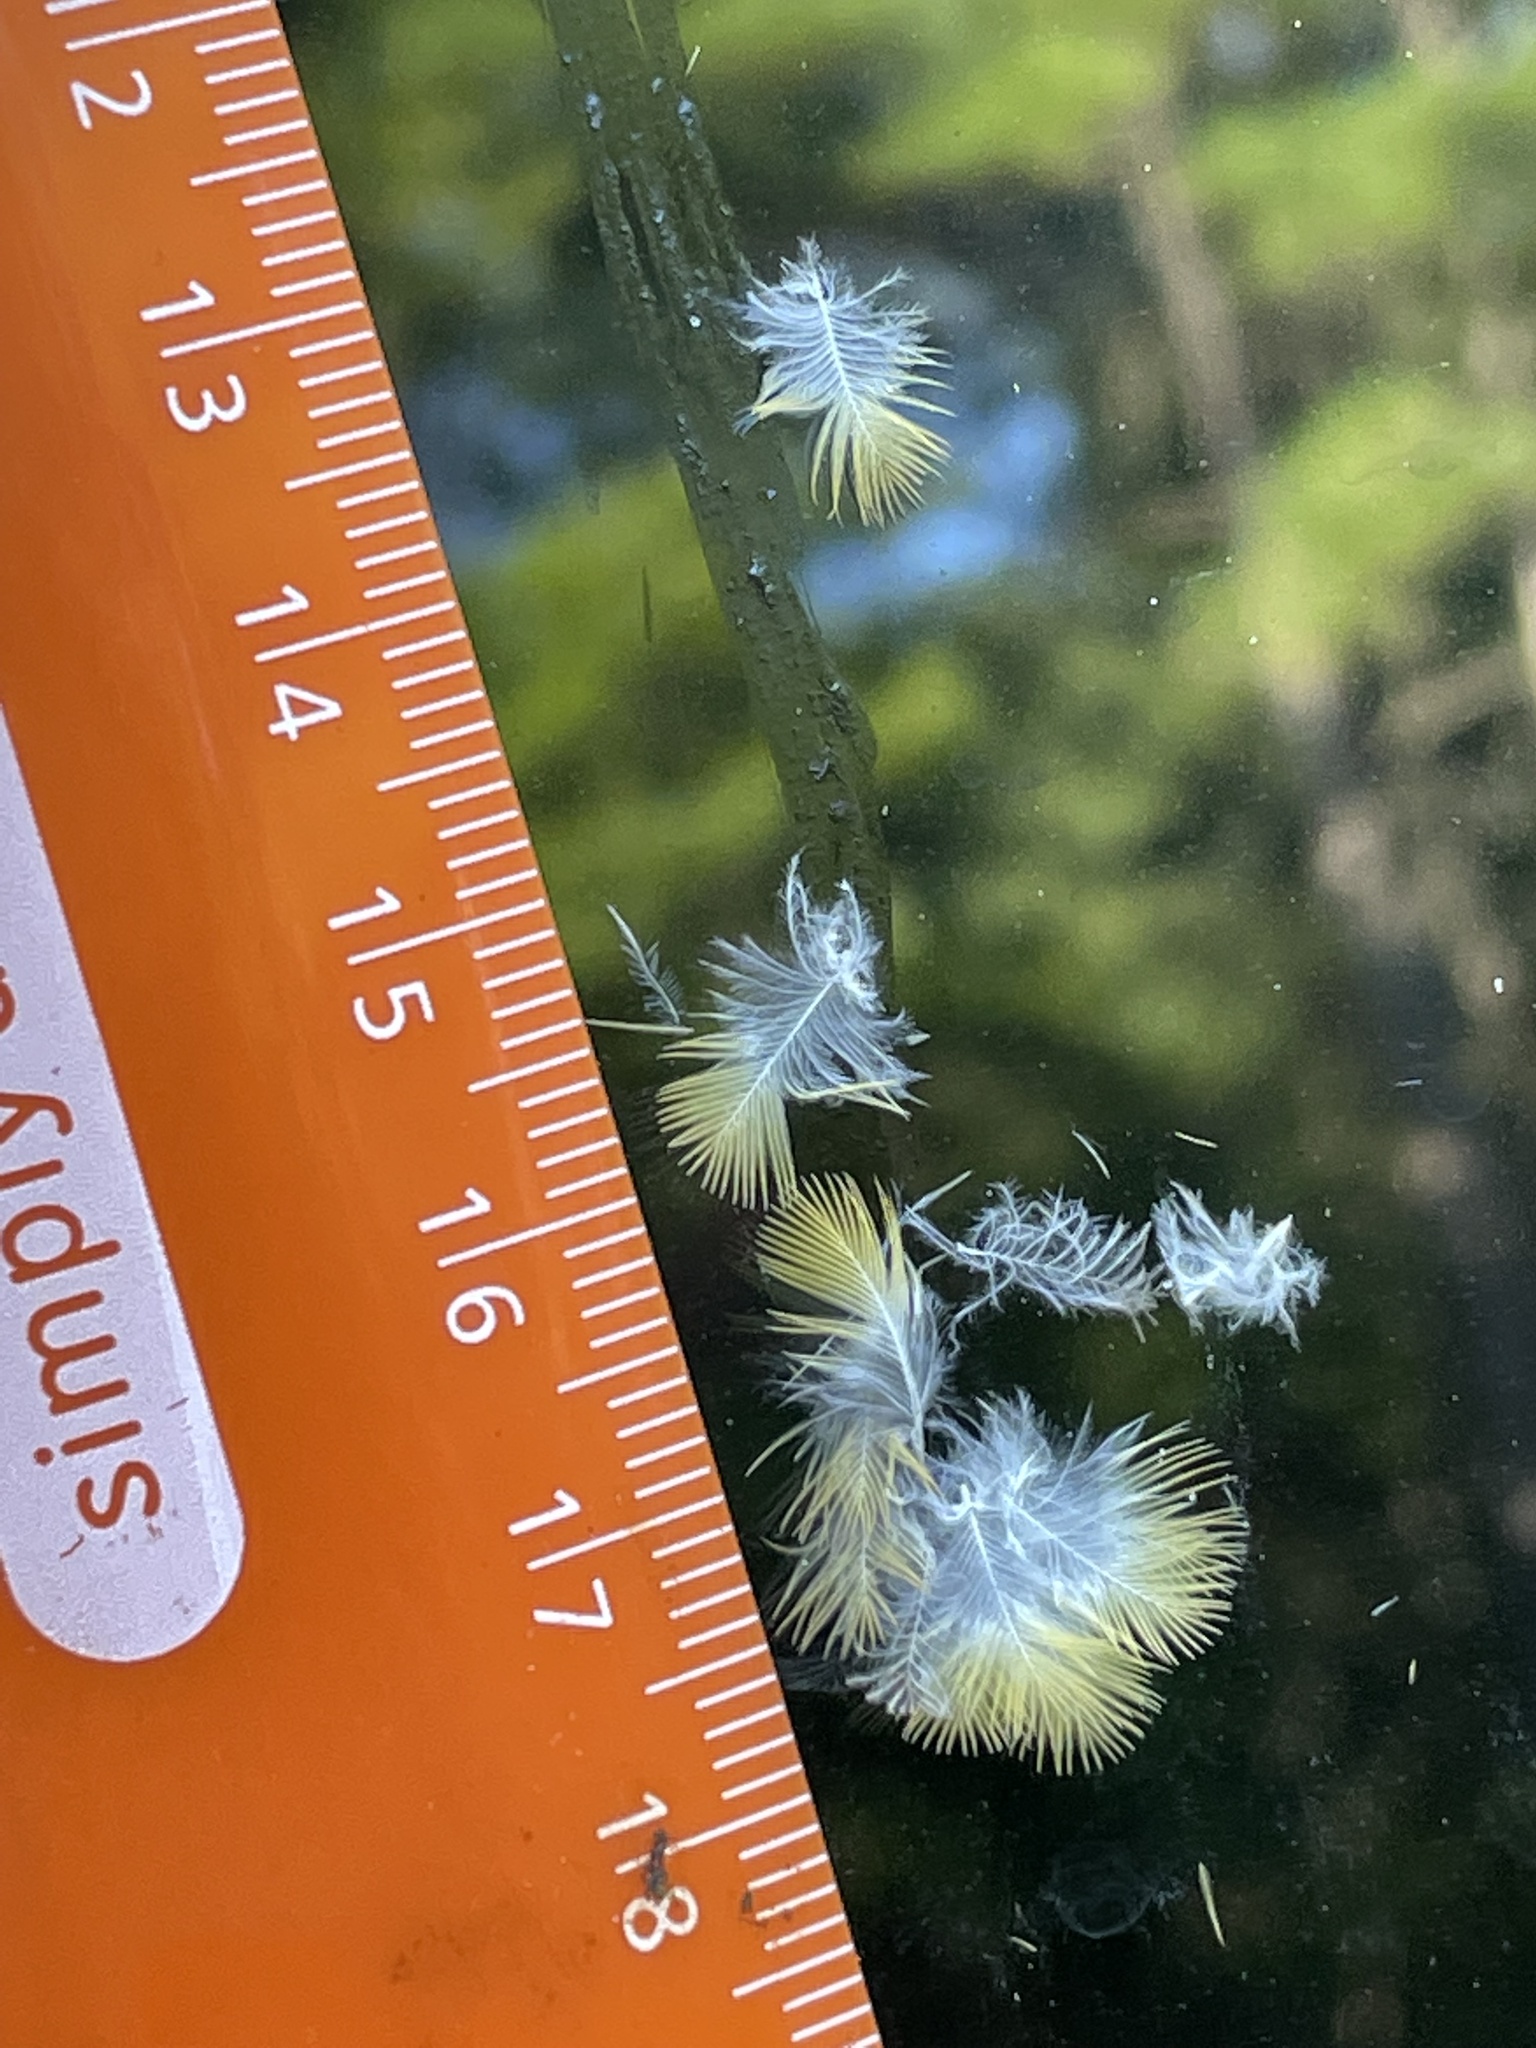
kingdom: Animalia
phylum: Chordata
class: Aves
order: Passeriformes
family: Fringillidae
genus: Spinus
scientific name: Spinus tristis
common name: American goldfinch
